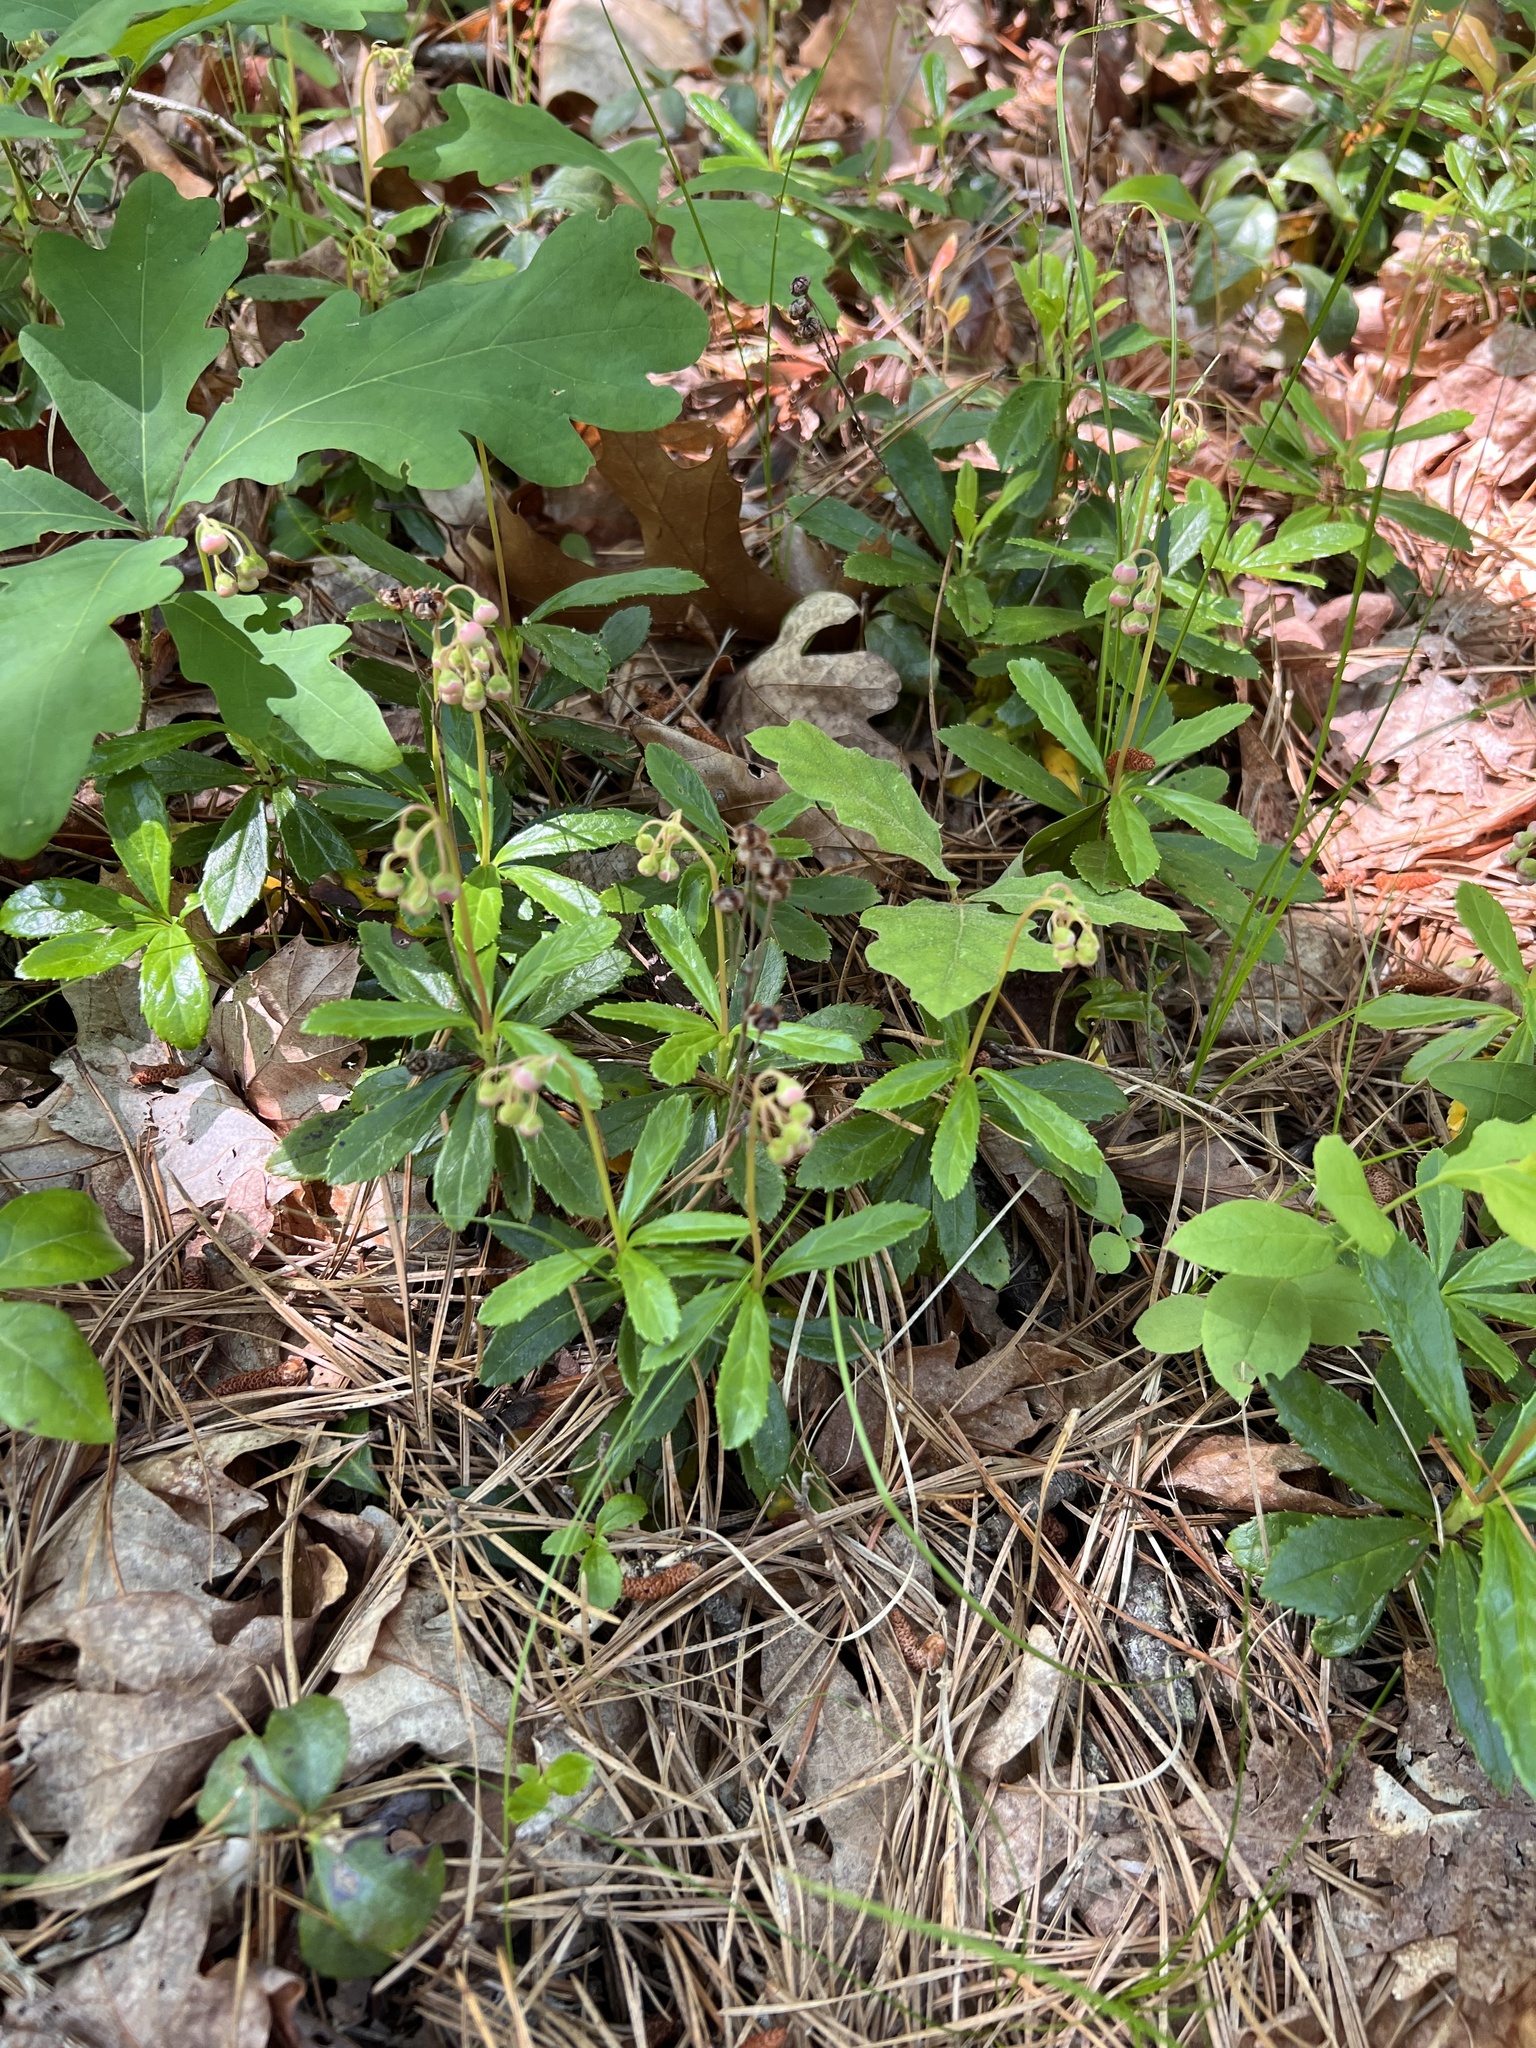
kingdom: Plantae
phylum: Tracheophyta
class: Magnoliopsida
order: Ericales
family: Ericaceae
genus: Chimaphila
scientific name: Chimaphila umbellata
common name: Pipsissewa
